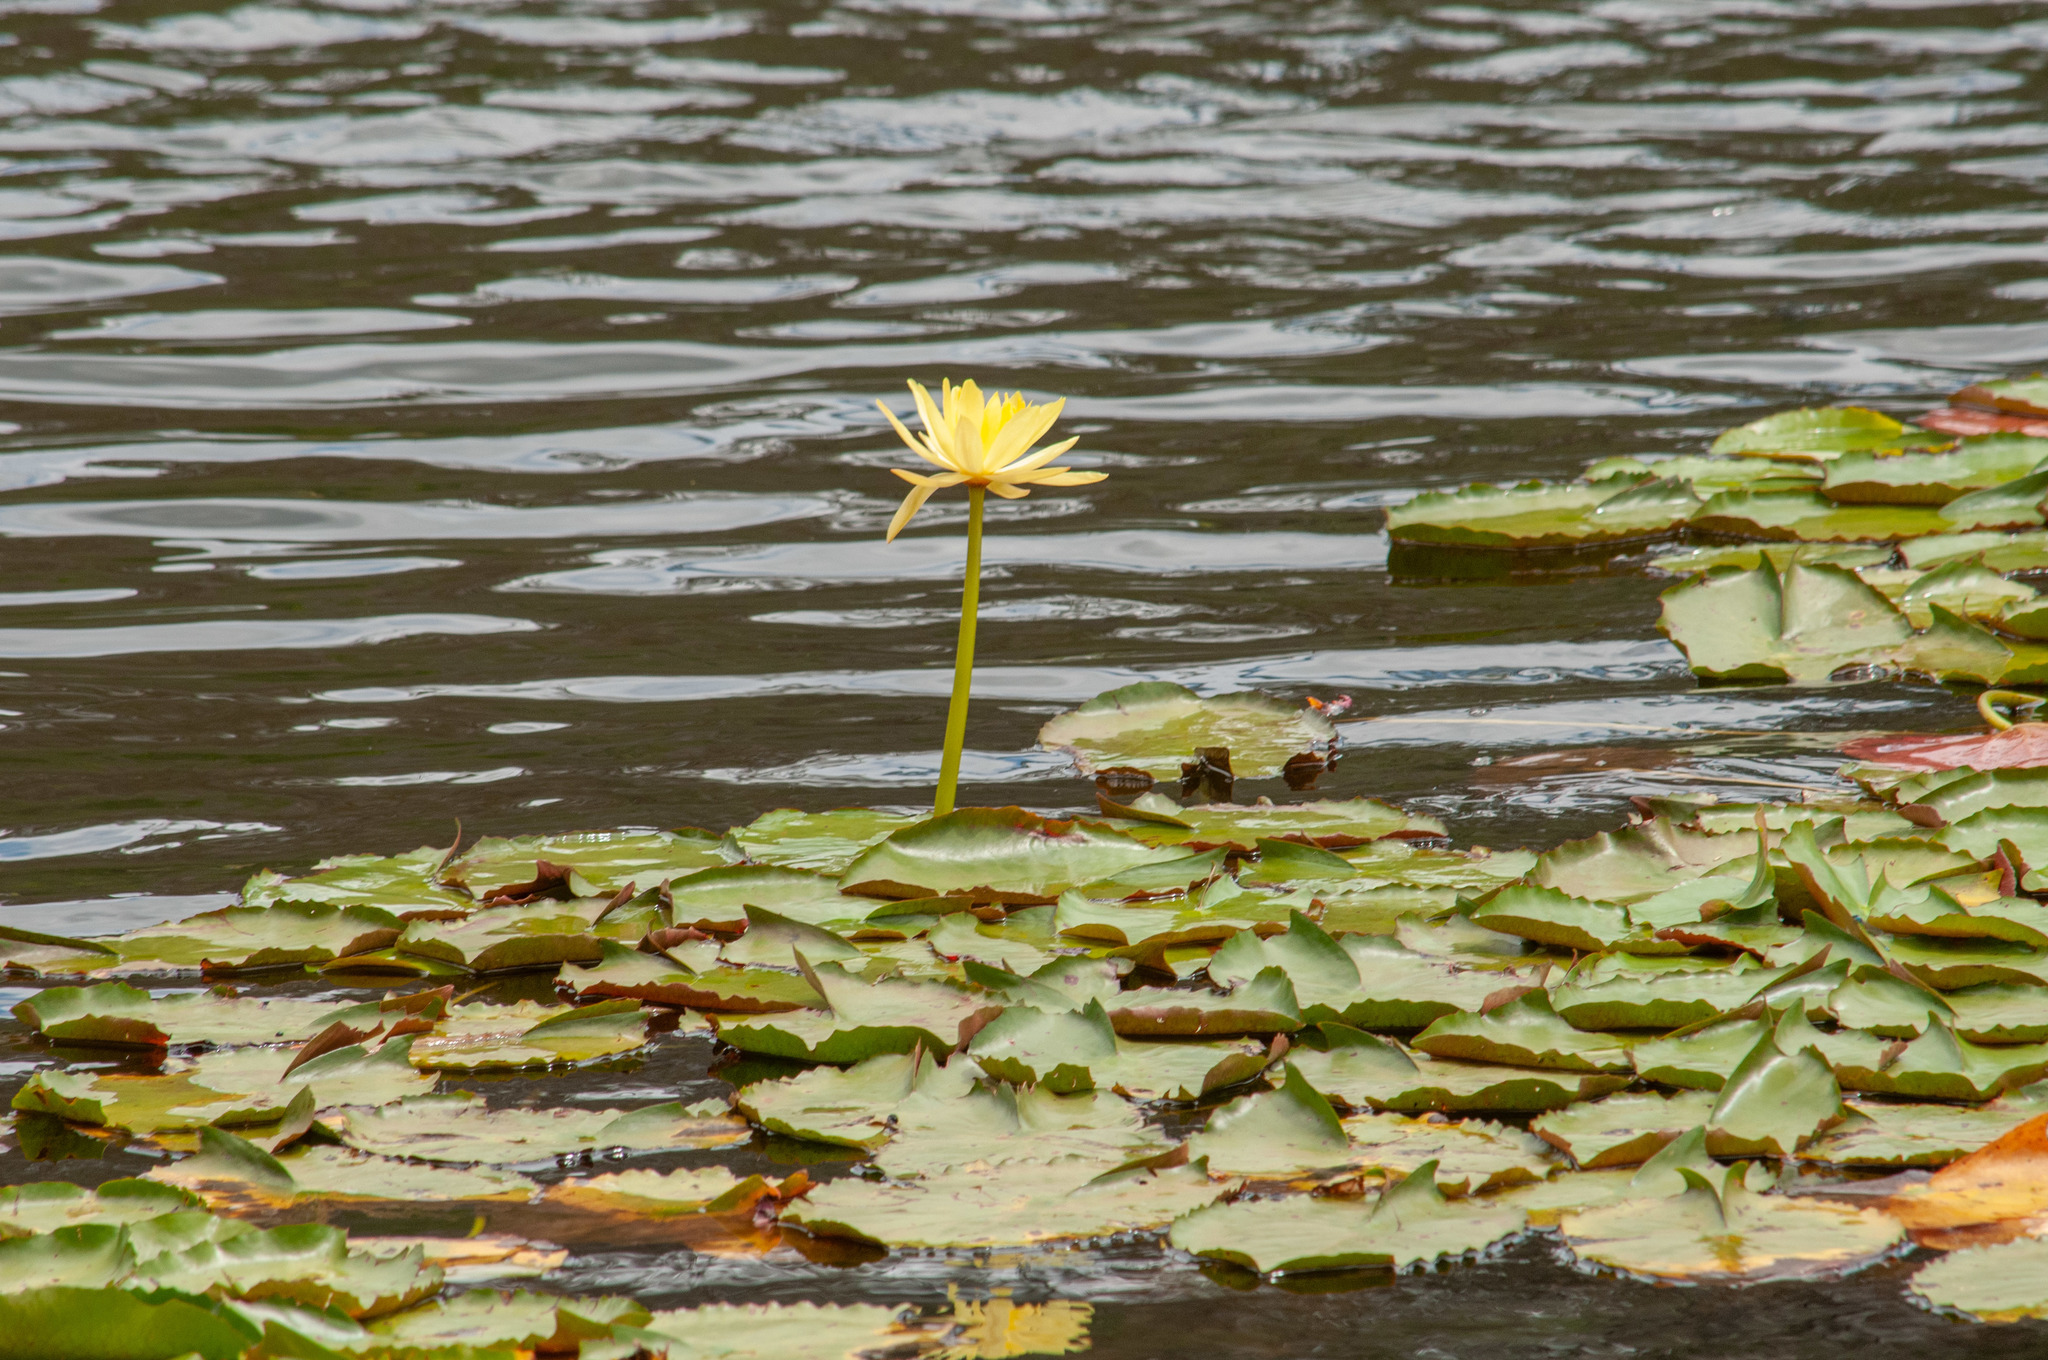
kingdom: Plantae
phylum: Tracheophyta
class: Magnoliopsida
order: Nymphaeales
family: Nymphaeaceae
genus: Nymphaea
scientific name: Nymphaea mexicana
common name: Banana water-lily
